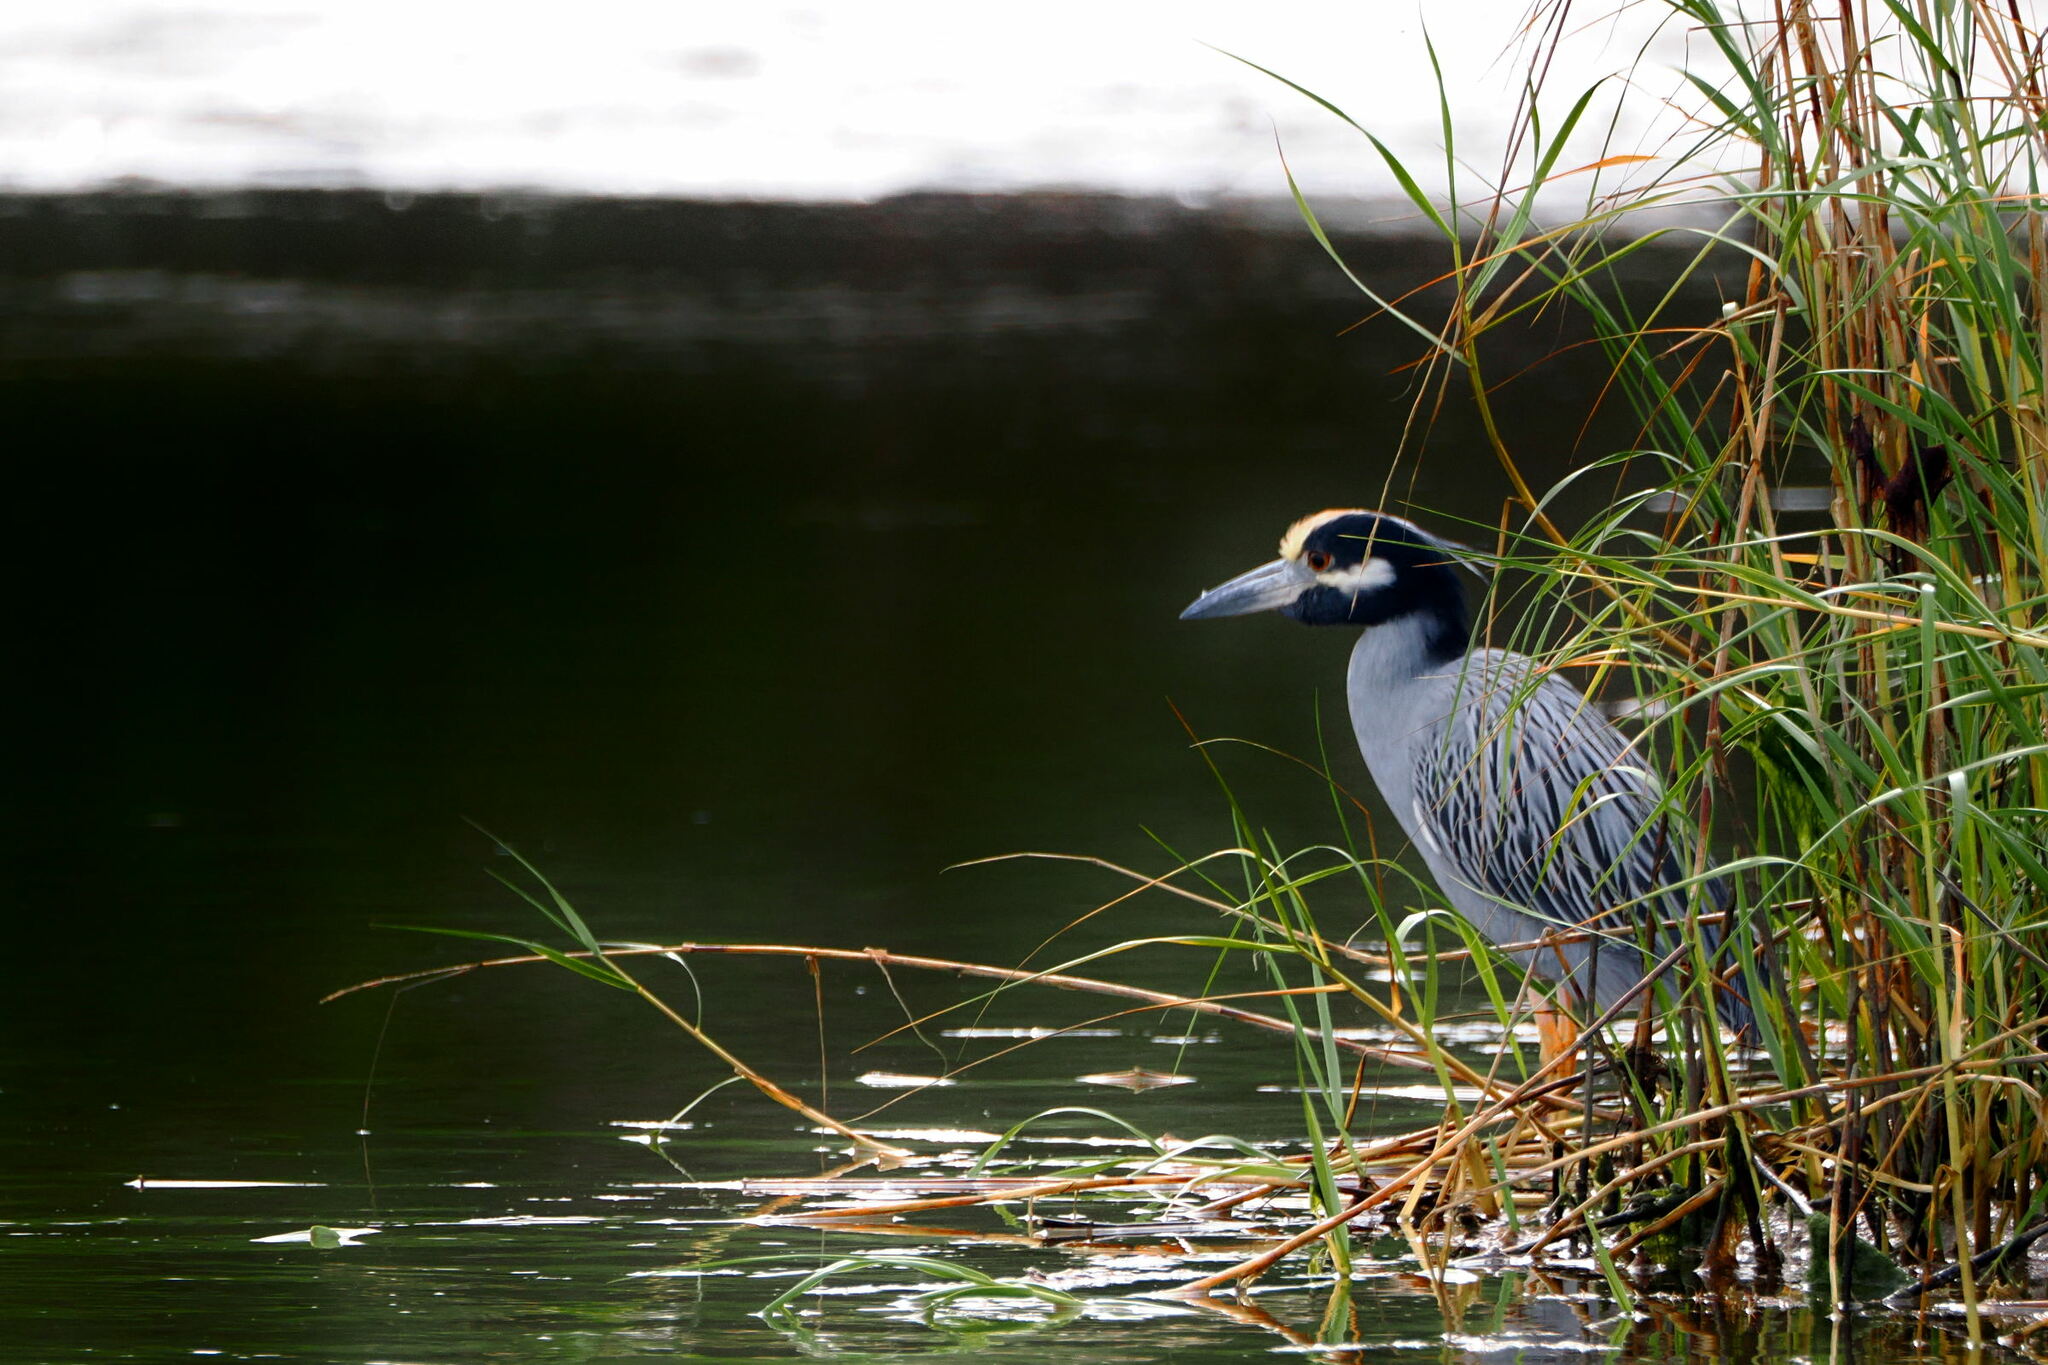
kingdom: Animalia
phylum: Chordata
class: Aves
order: Pelecaniformes
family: Ardeidae
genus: Nyctanassa
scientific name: Nyctanassa violacea
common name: Yellow-crowned night heron
